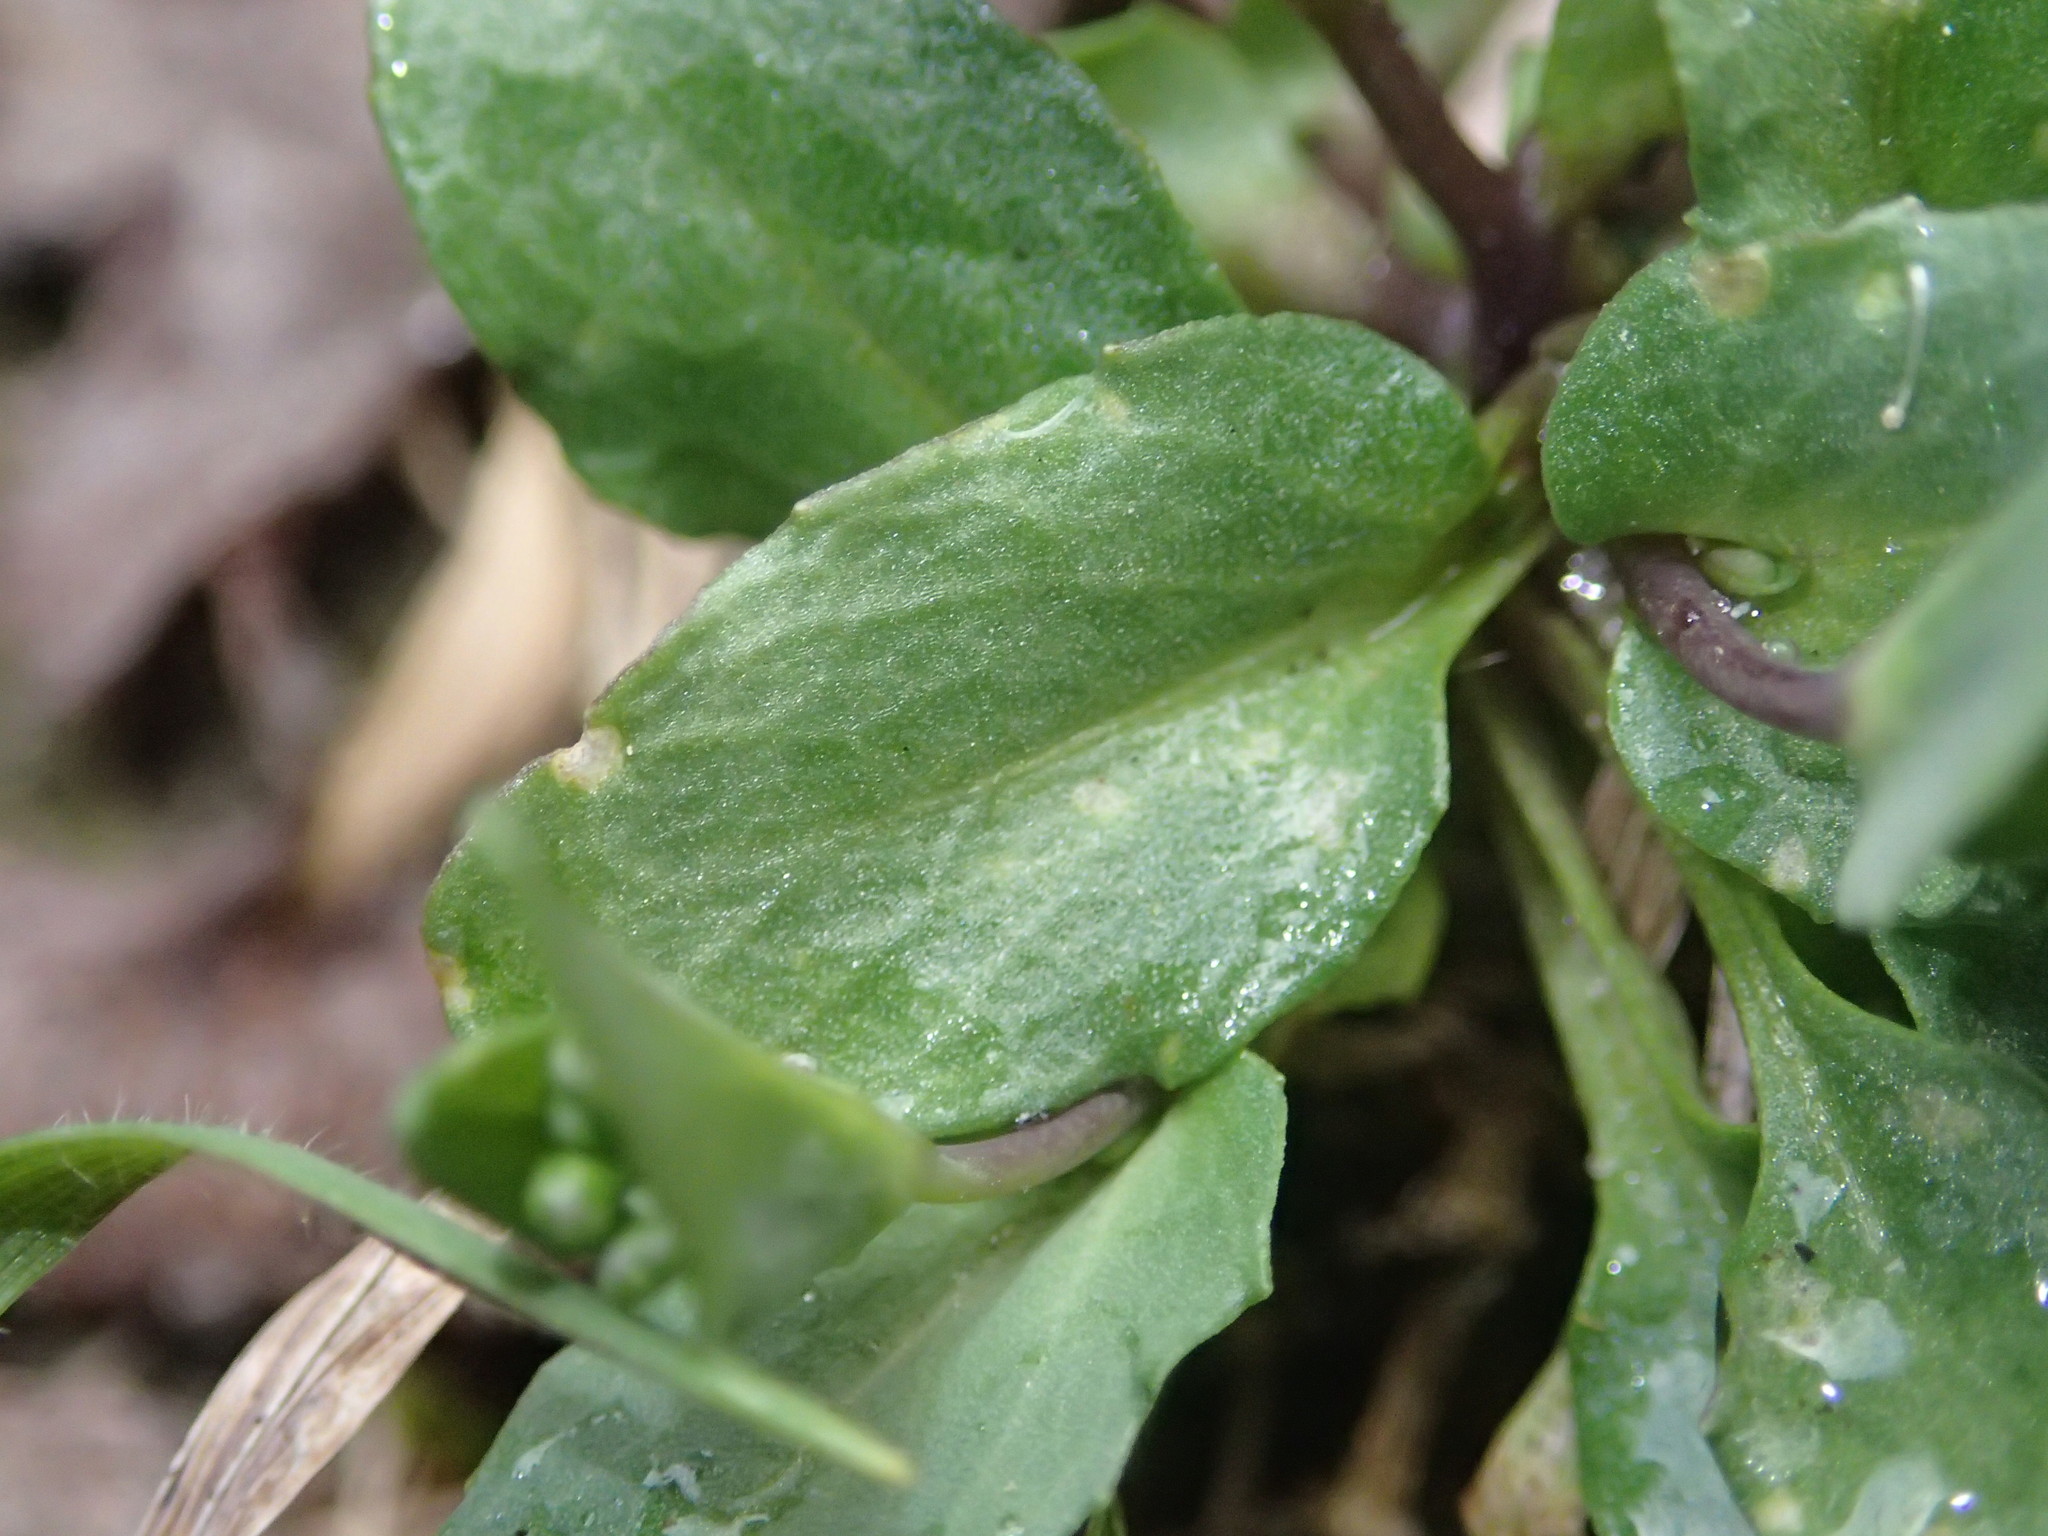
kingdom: Plantae
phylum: Tracheophyta
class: Magnoliopsida
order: Brassicales
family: Brassicaceae
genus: Noccaea
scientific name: Noccaea perfoliata
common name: Perfoliate pennycress
